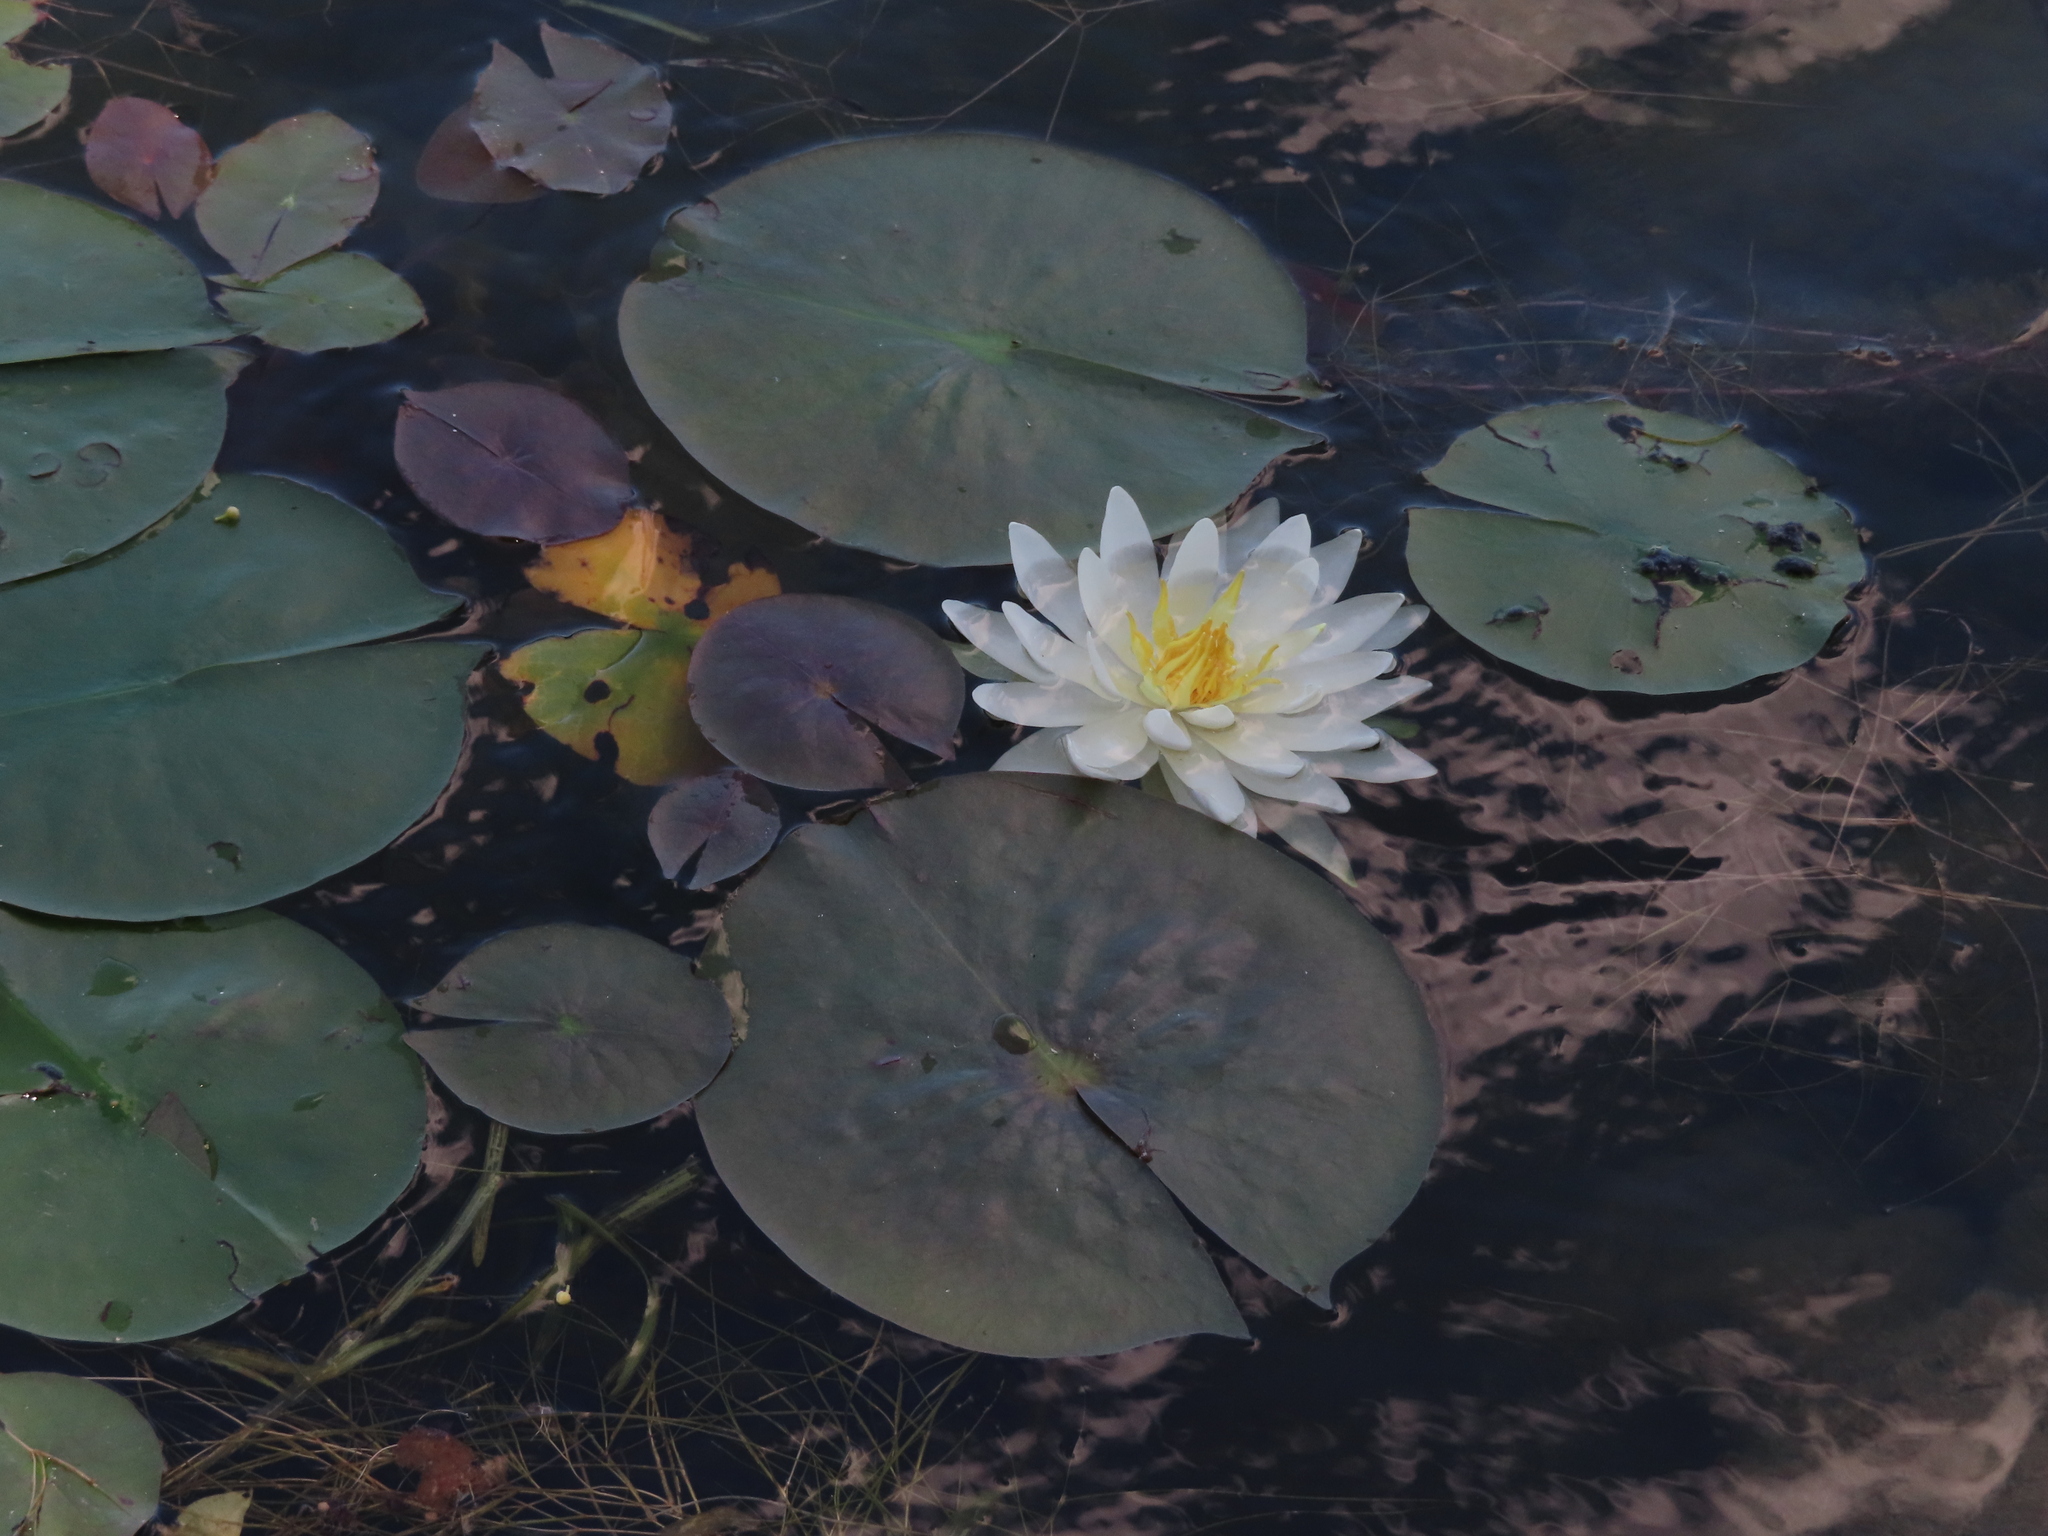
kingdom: Plantae
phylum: Tracheophyta
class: Magnoliopsida
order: Nymphaeales
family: Nymphaeaceae
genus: Nymphaea
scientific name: Nymphaea odorata
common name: Fragrant water-lily
